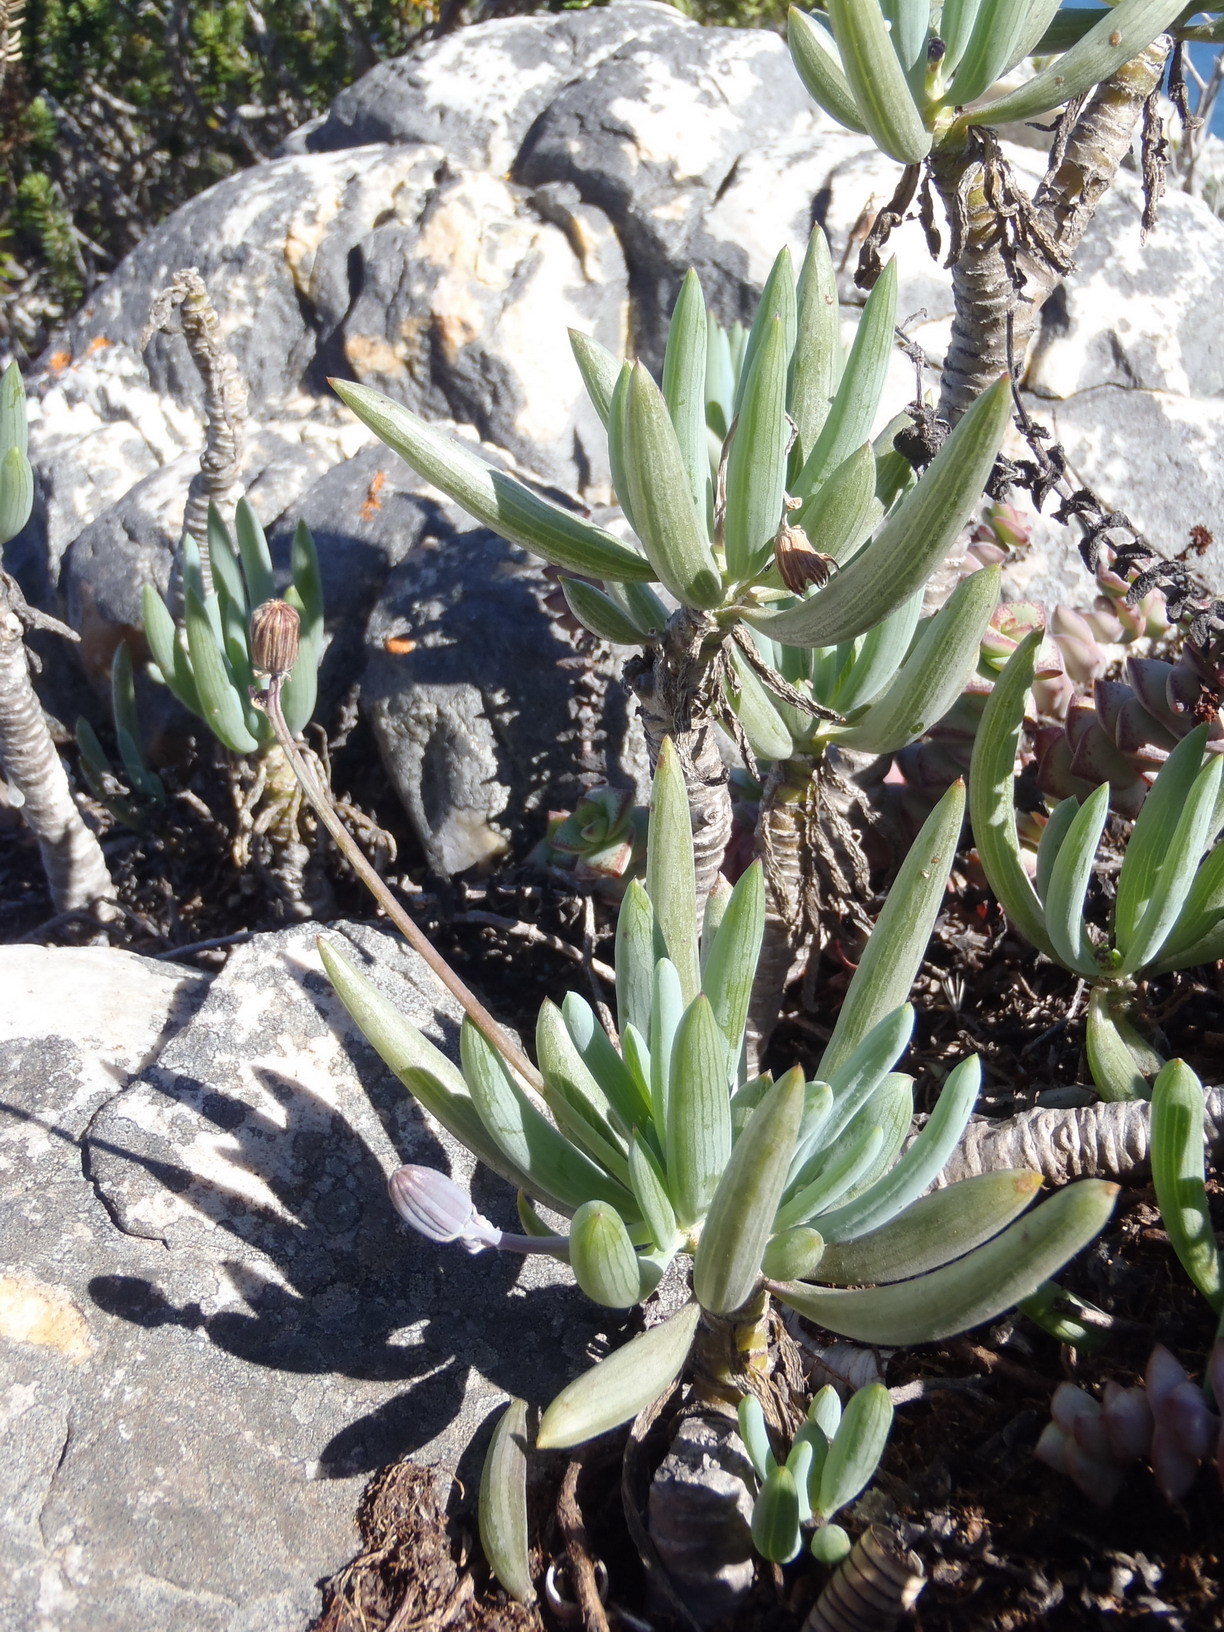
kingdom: Plantae
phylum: Tracheophyta
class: Magnoliopsida
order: Asterales
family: Asteraceae
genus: Curio
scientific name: Curio crassulifolius
